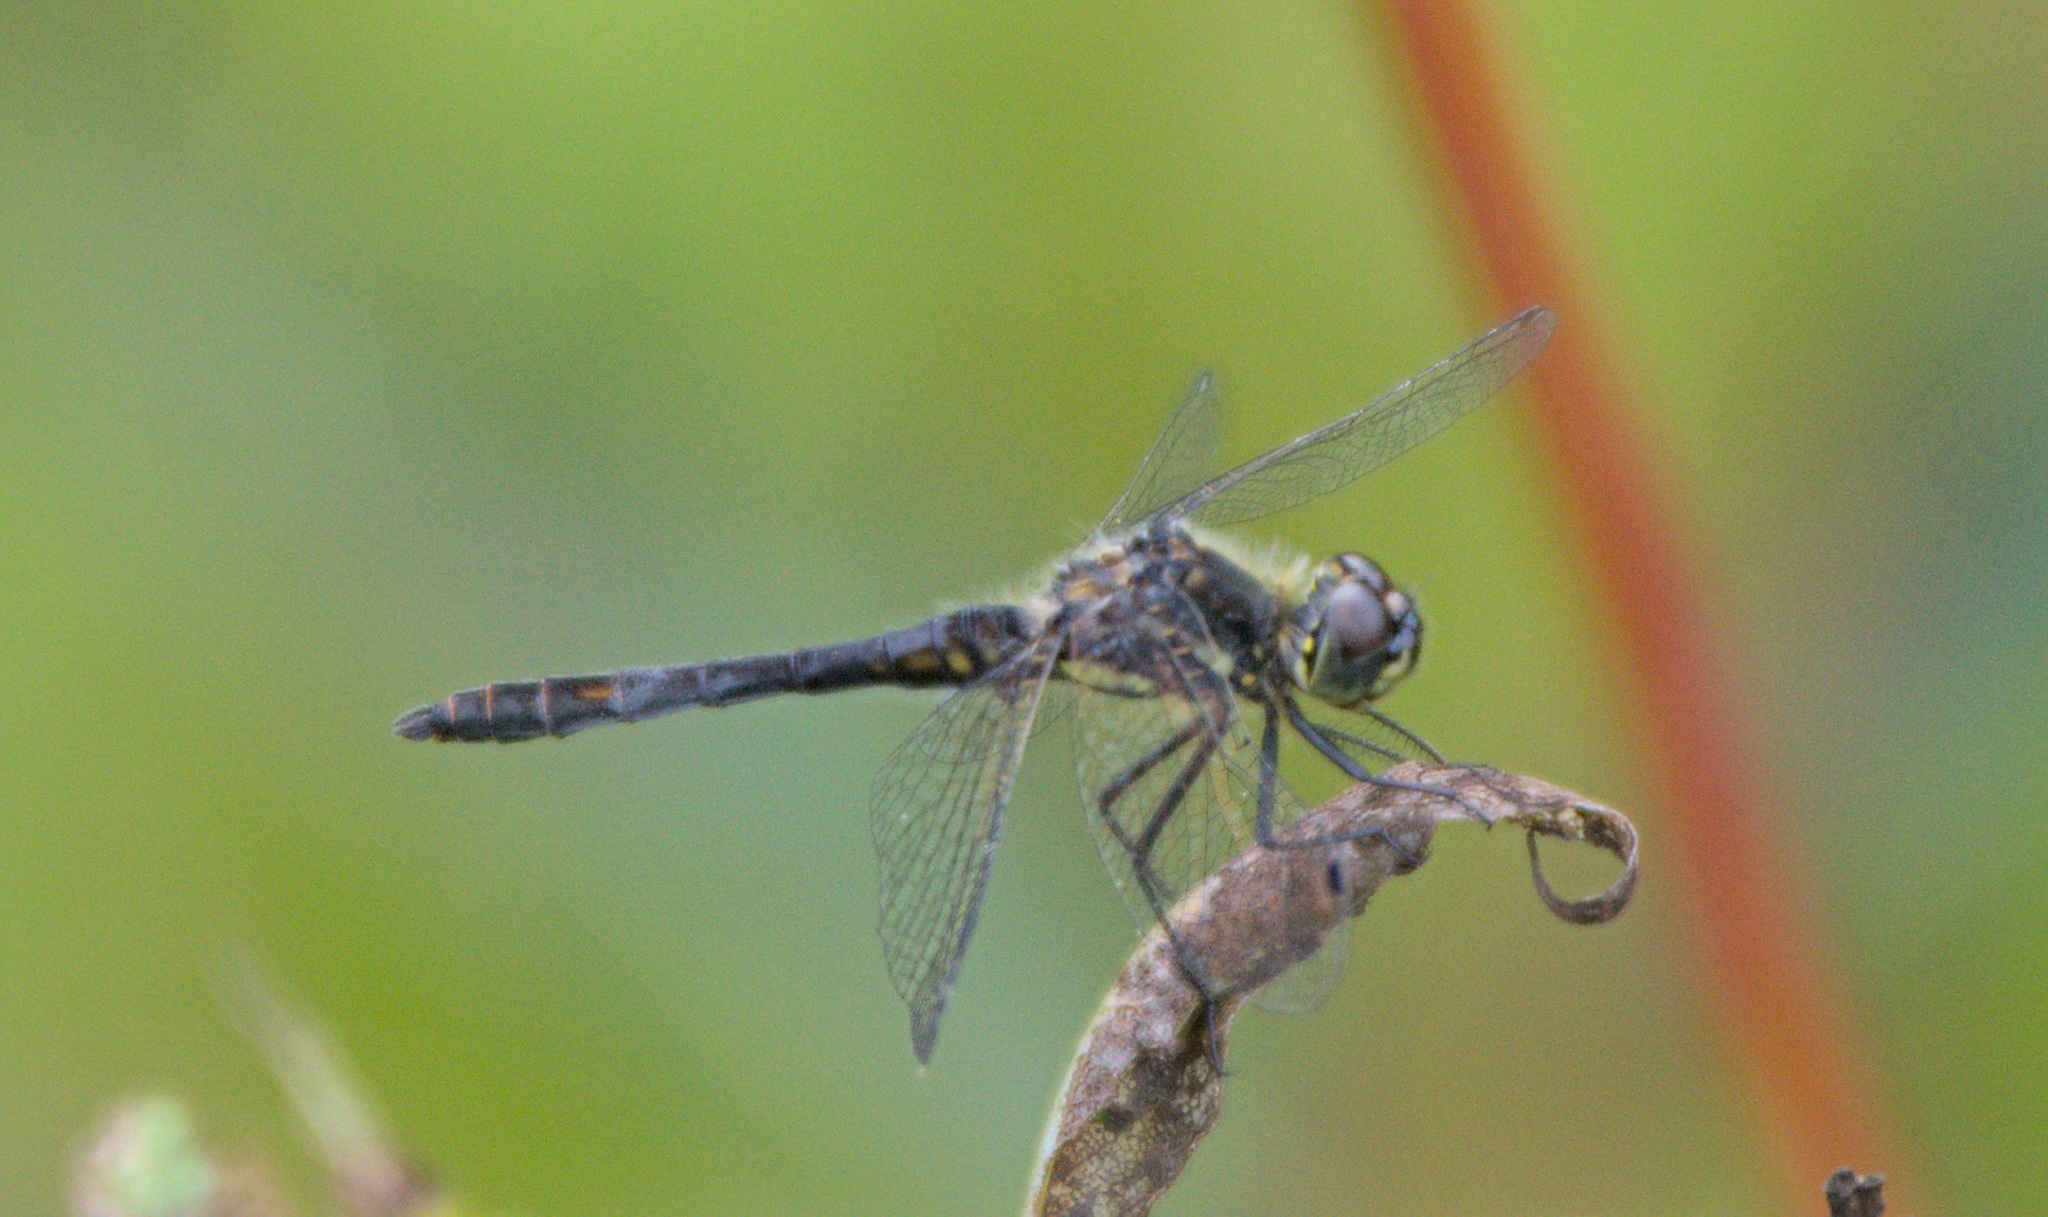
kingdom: Animalia
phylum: Arthropoda
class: Insecta
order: Odonata
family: Libellulidae
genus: Sympetrum
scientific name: Sympetrum danae
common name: Black darter
